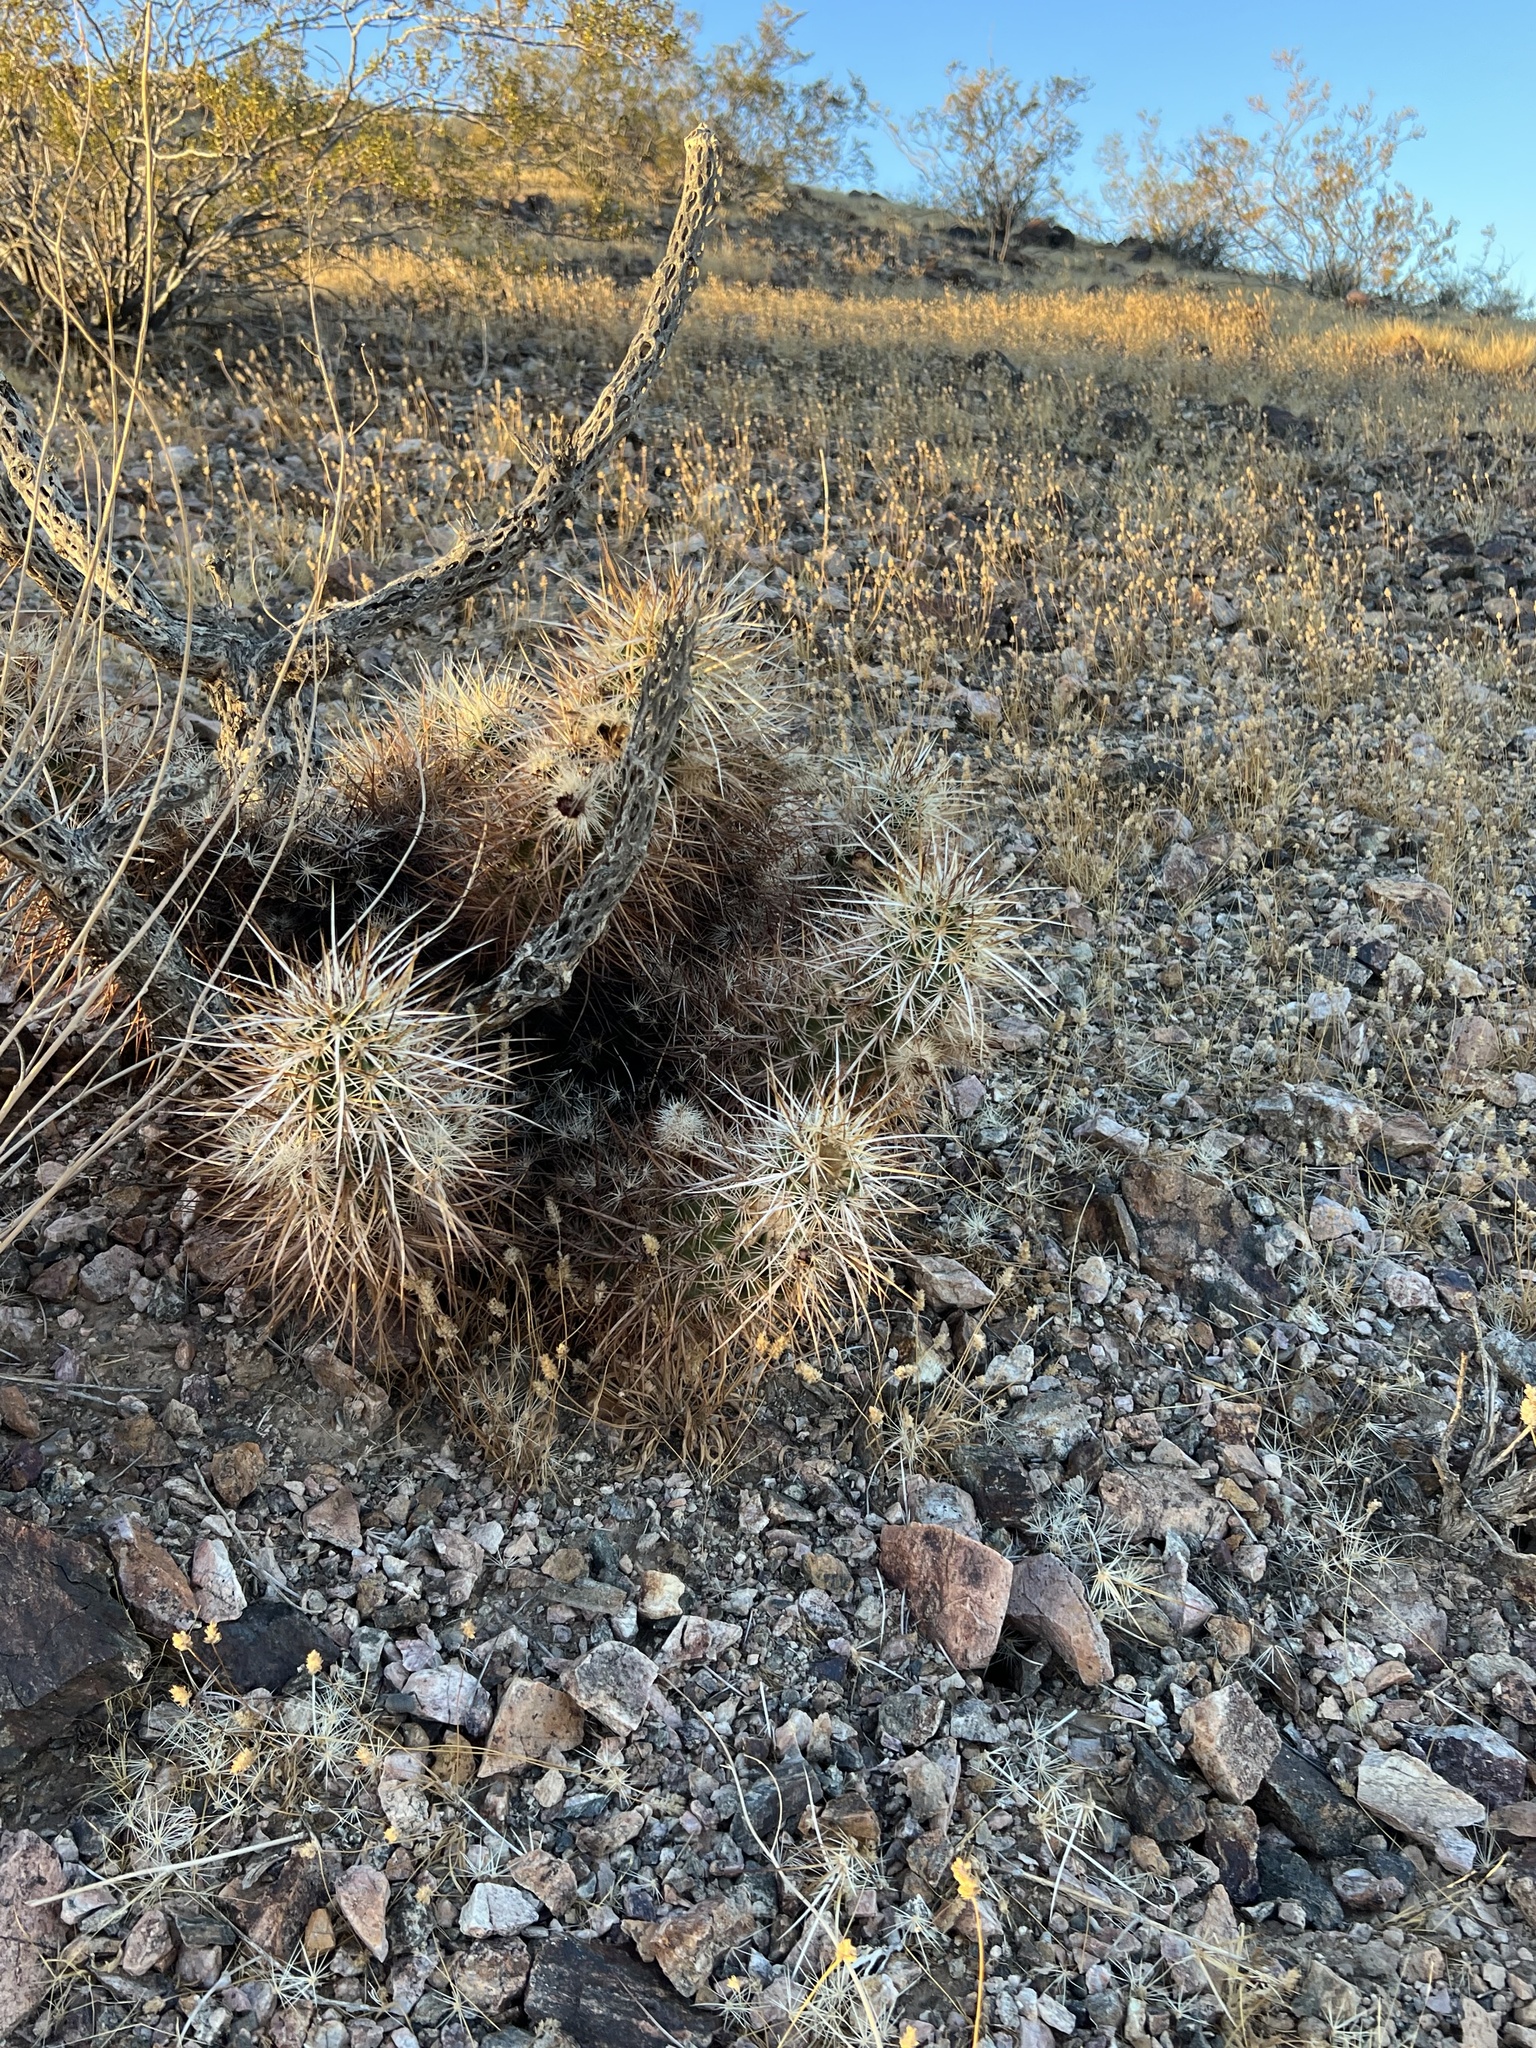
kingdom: Plantae
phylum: Tracheophyta
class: Magnoliopsida
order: Caryophyllales
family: Cactaceae
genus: Echinocereus
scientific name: Echinocereus engelmannii
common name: Engelmann's hedgehog cactus
